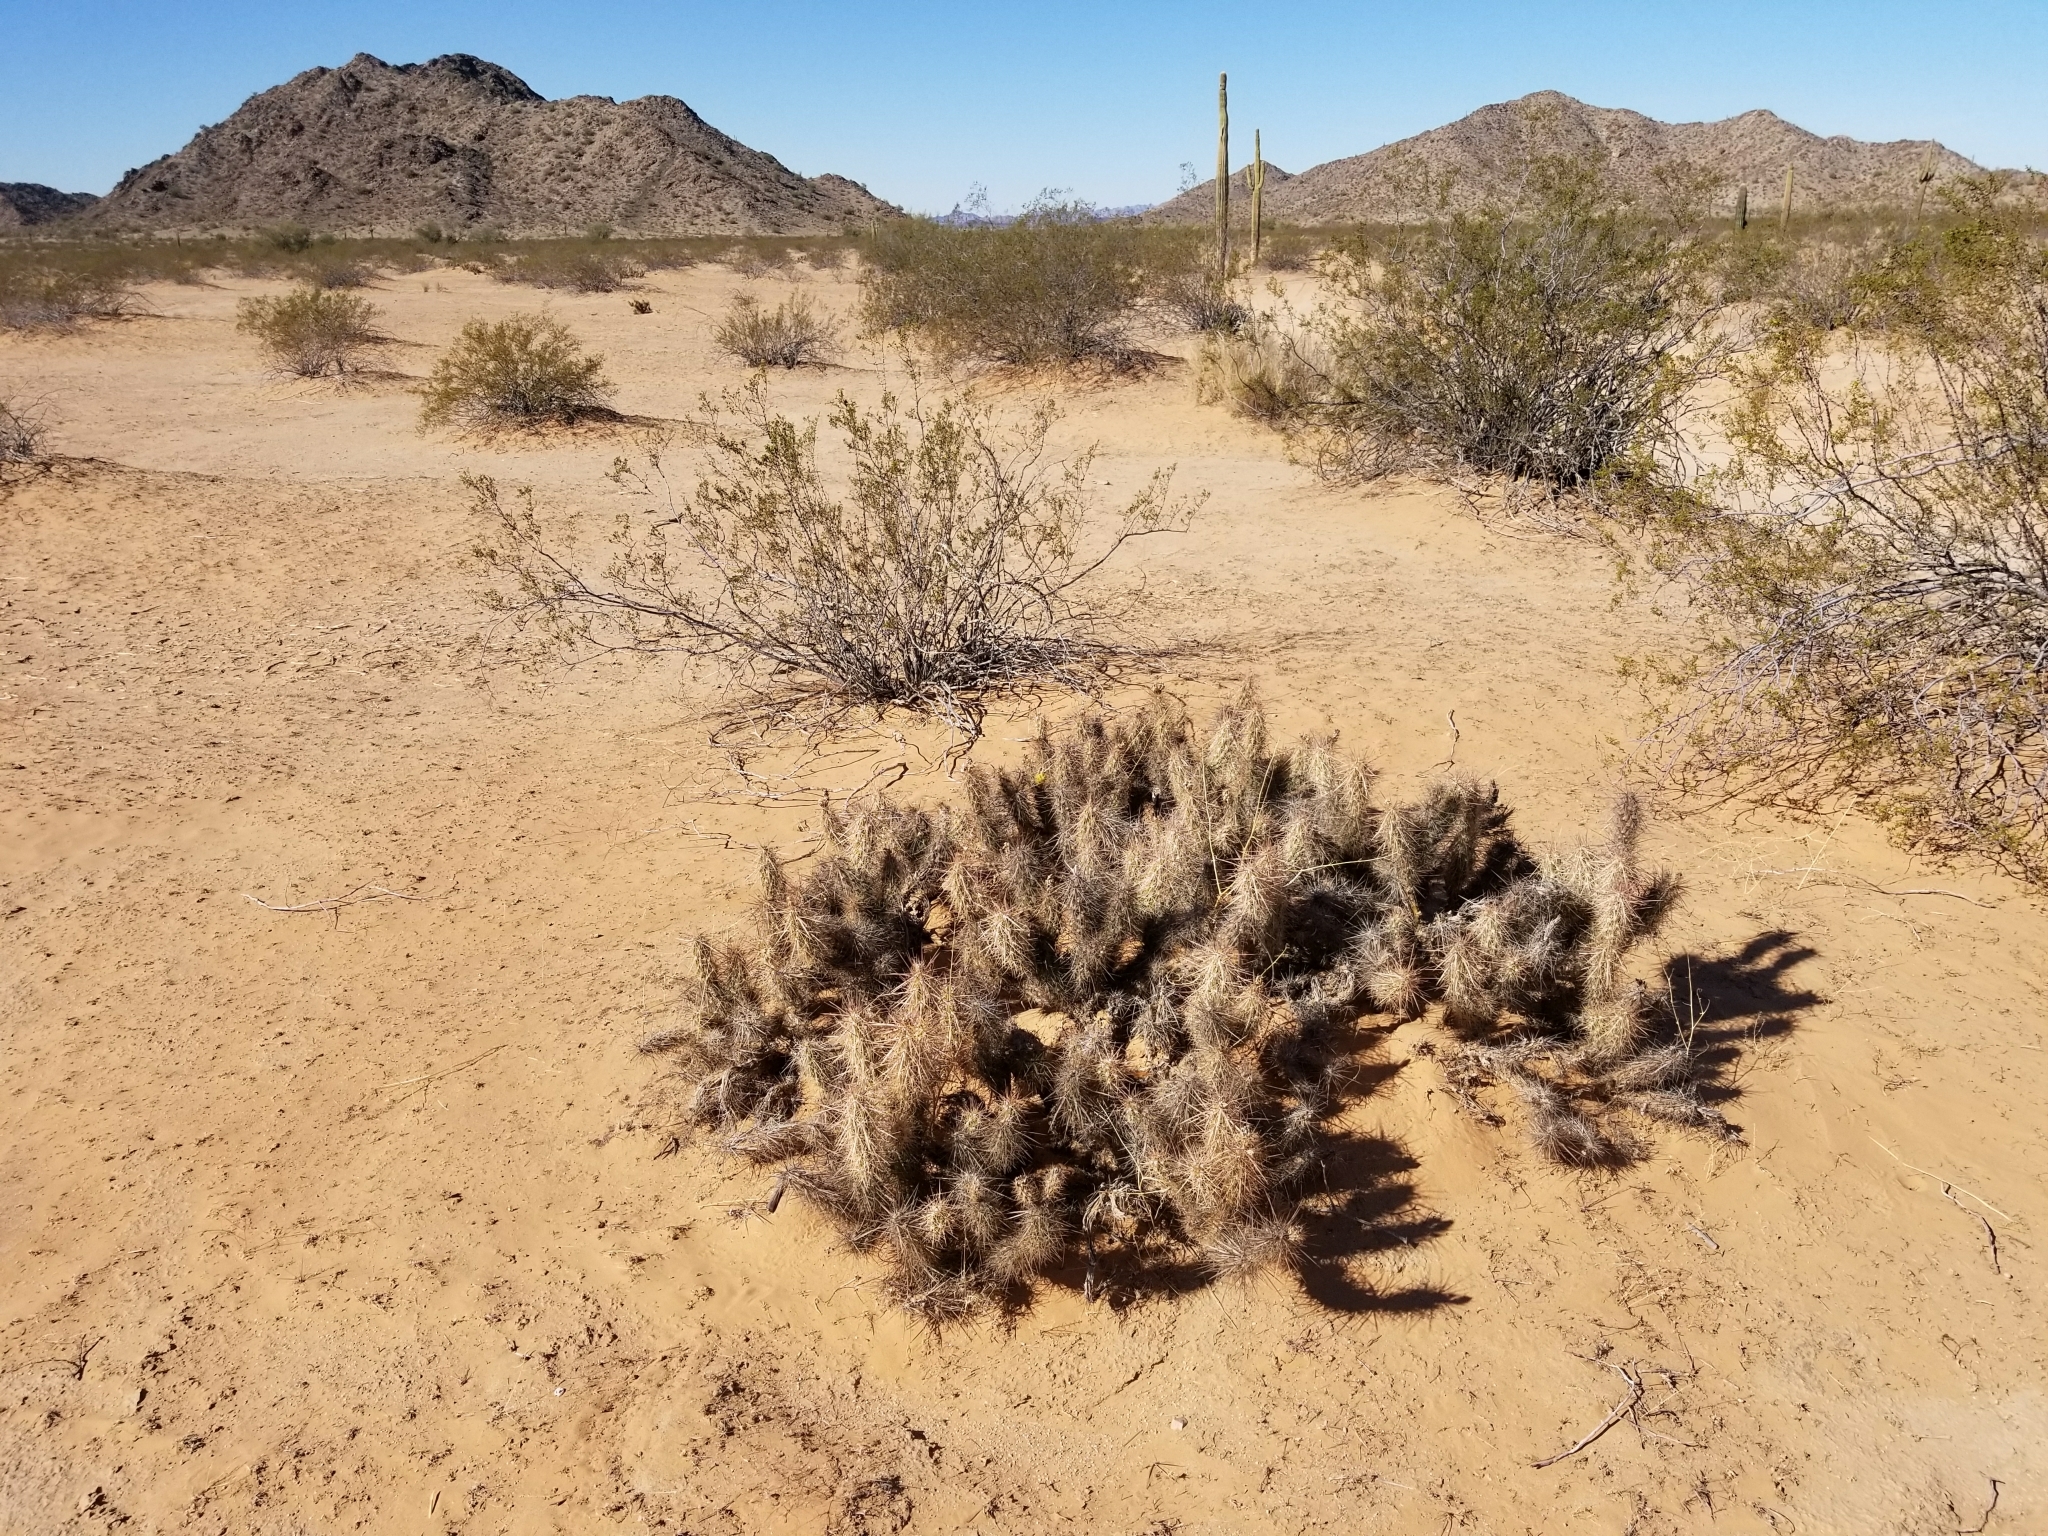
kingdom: Plantae
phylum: Tracheophyta
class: Magnoliopsida
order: Caryophyllales
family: Cactaceae
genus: Grusonia
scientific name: Grusonia kunzei
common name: Wright's club cholla
